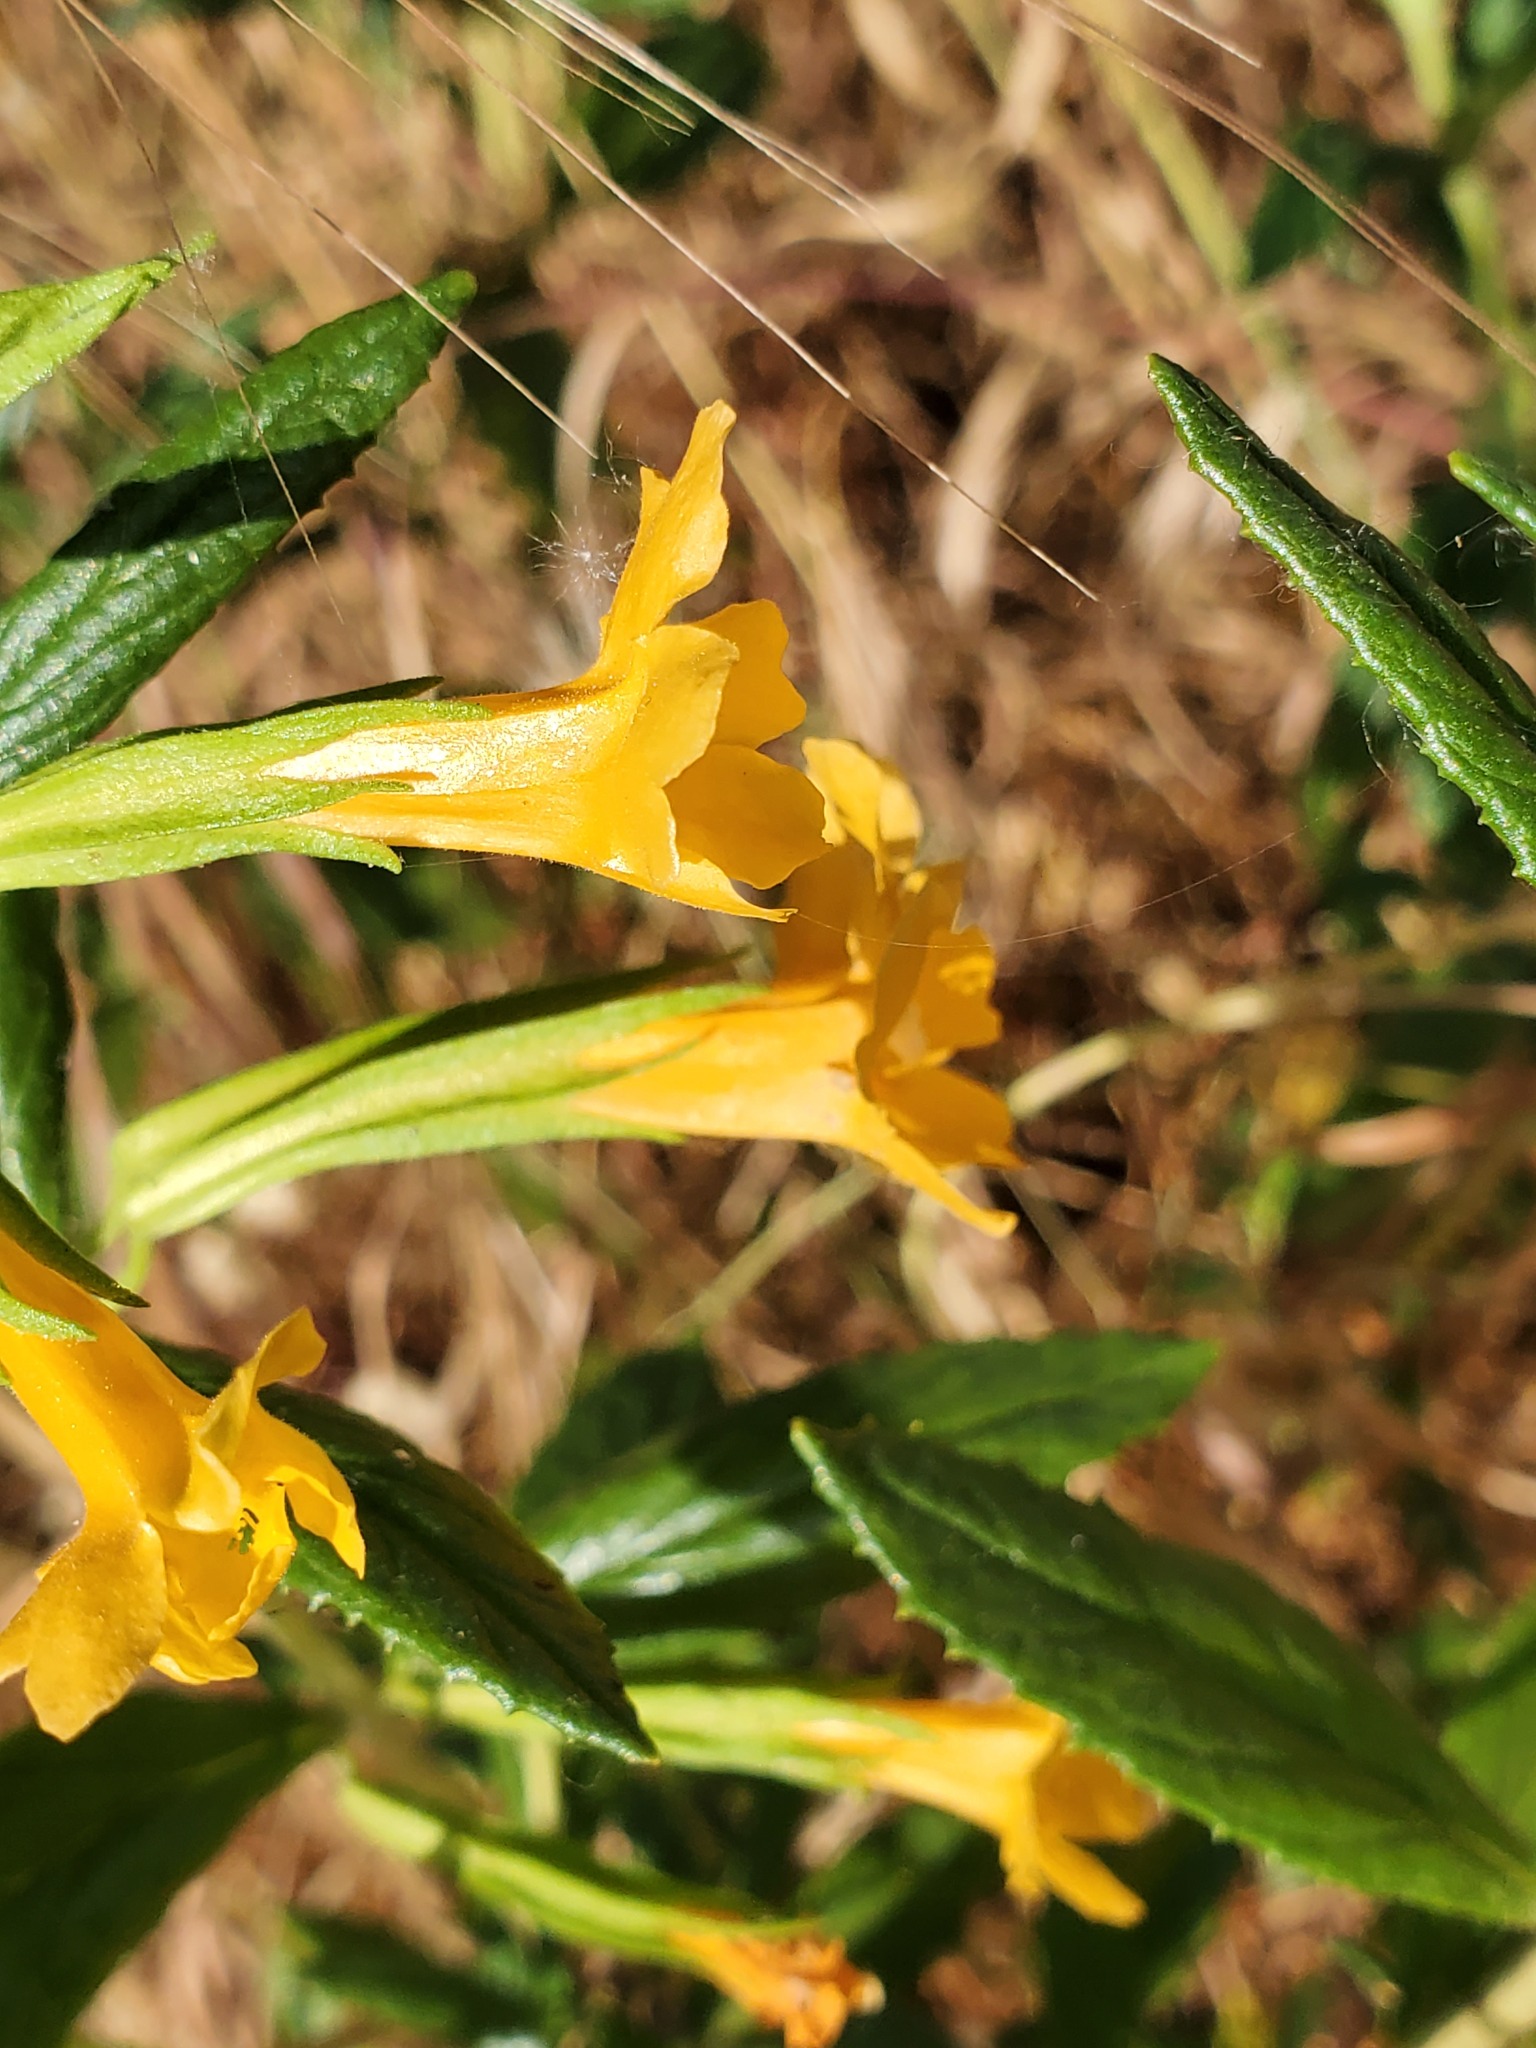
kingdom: Plantae
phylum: Tracheophyta
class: Magnoliopsida
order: Lamiales
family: Phrymaceae
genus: Diplacus
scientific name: Diplacus aurantiacus
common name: Bush monkey-flower
